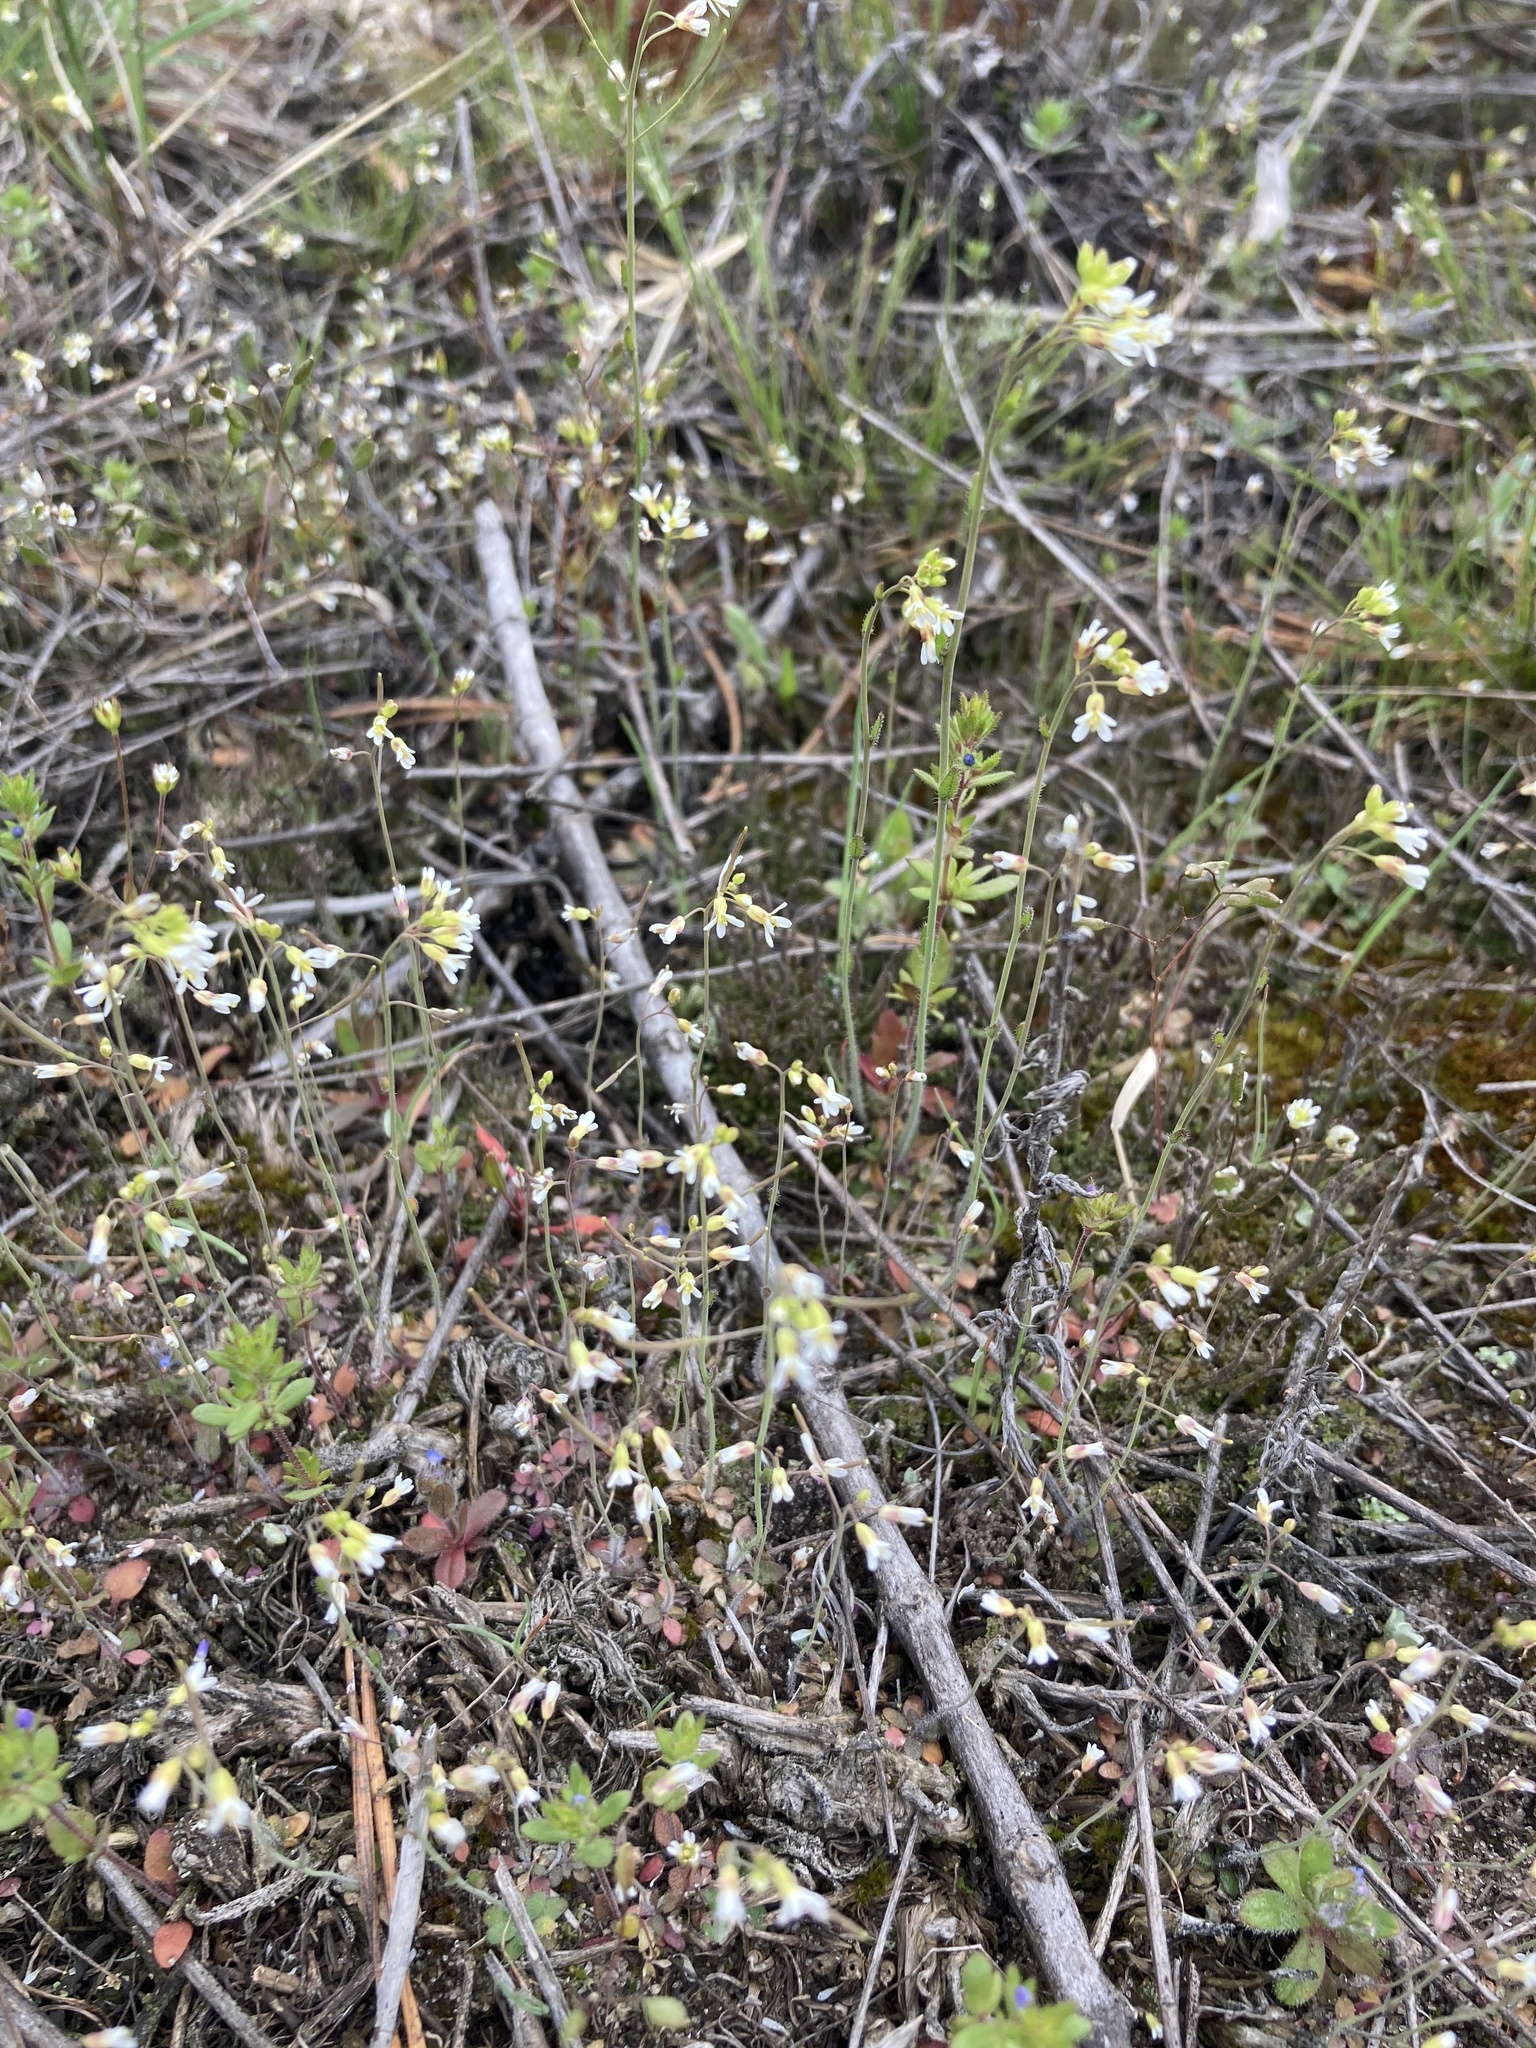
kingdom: Plantae
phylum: Tracheophyta
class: Magnoliopsida
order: Brassicales
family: Brassicaceae
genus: Arabidopsis
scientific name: Arabidopsis thaliana
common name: Thale cress
